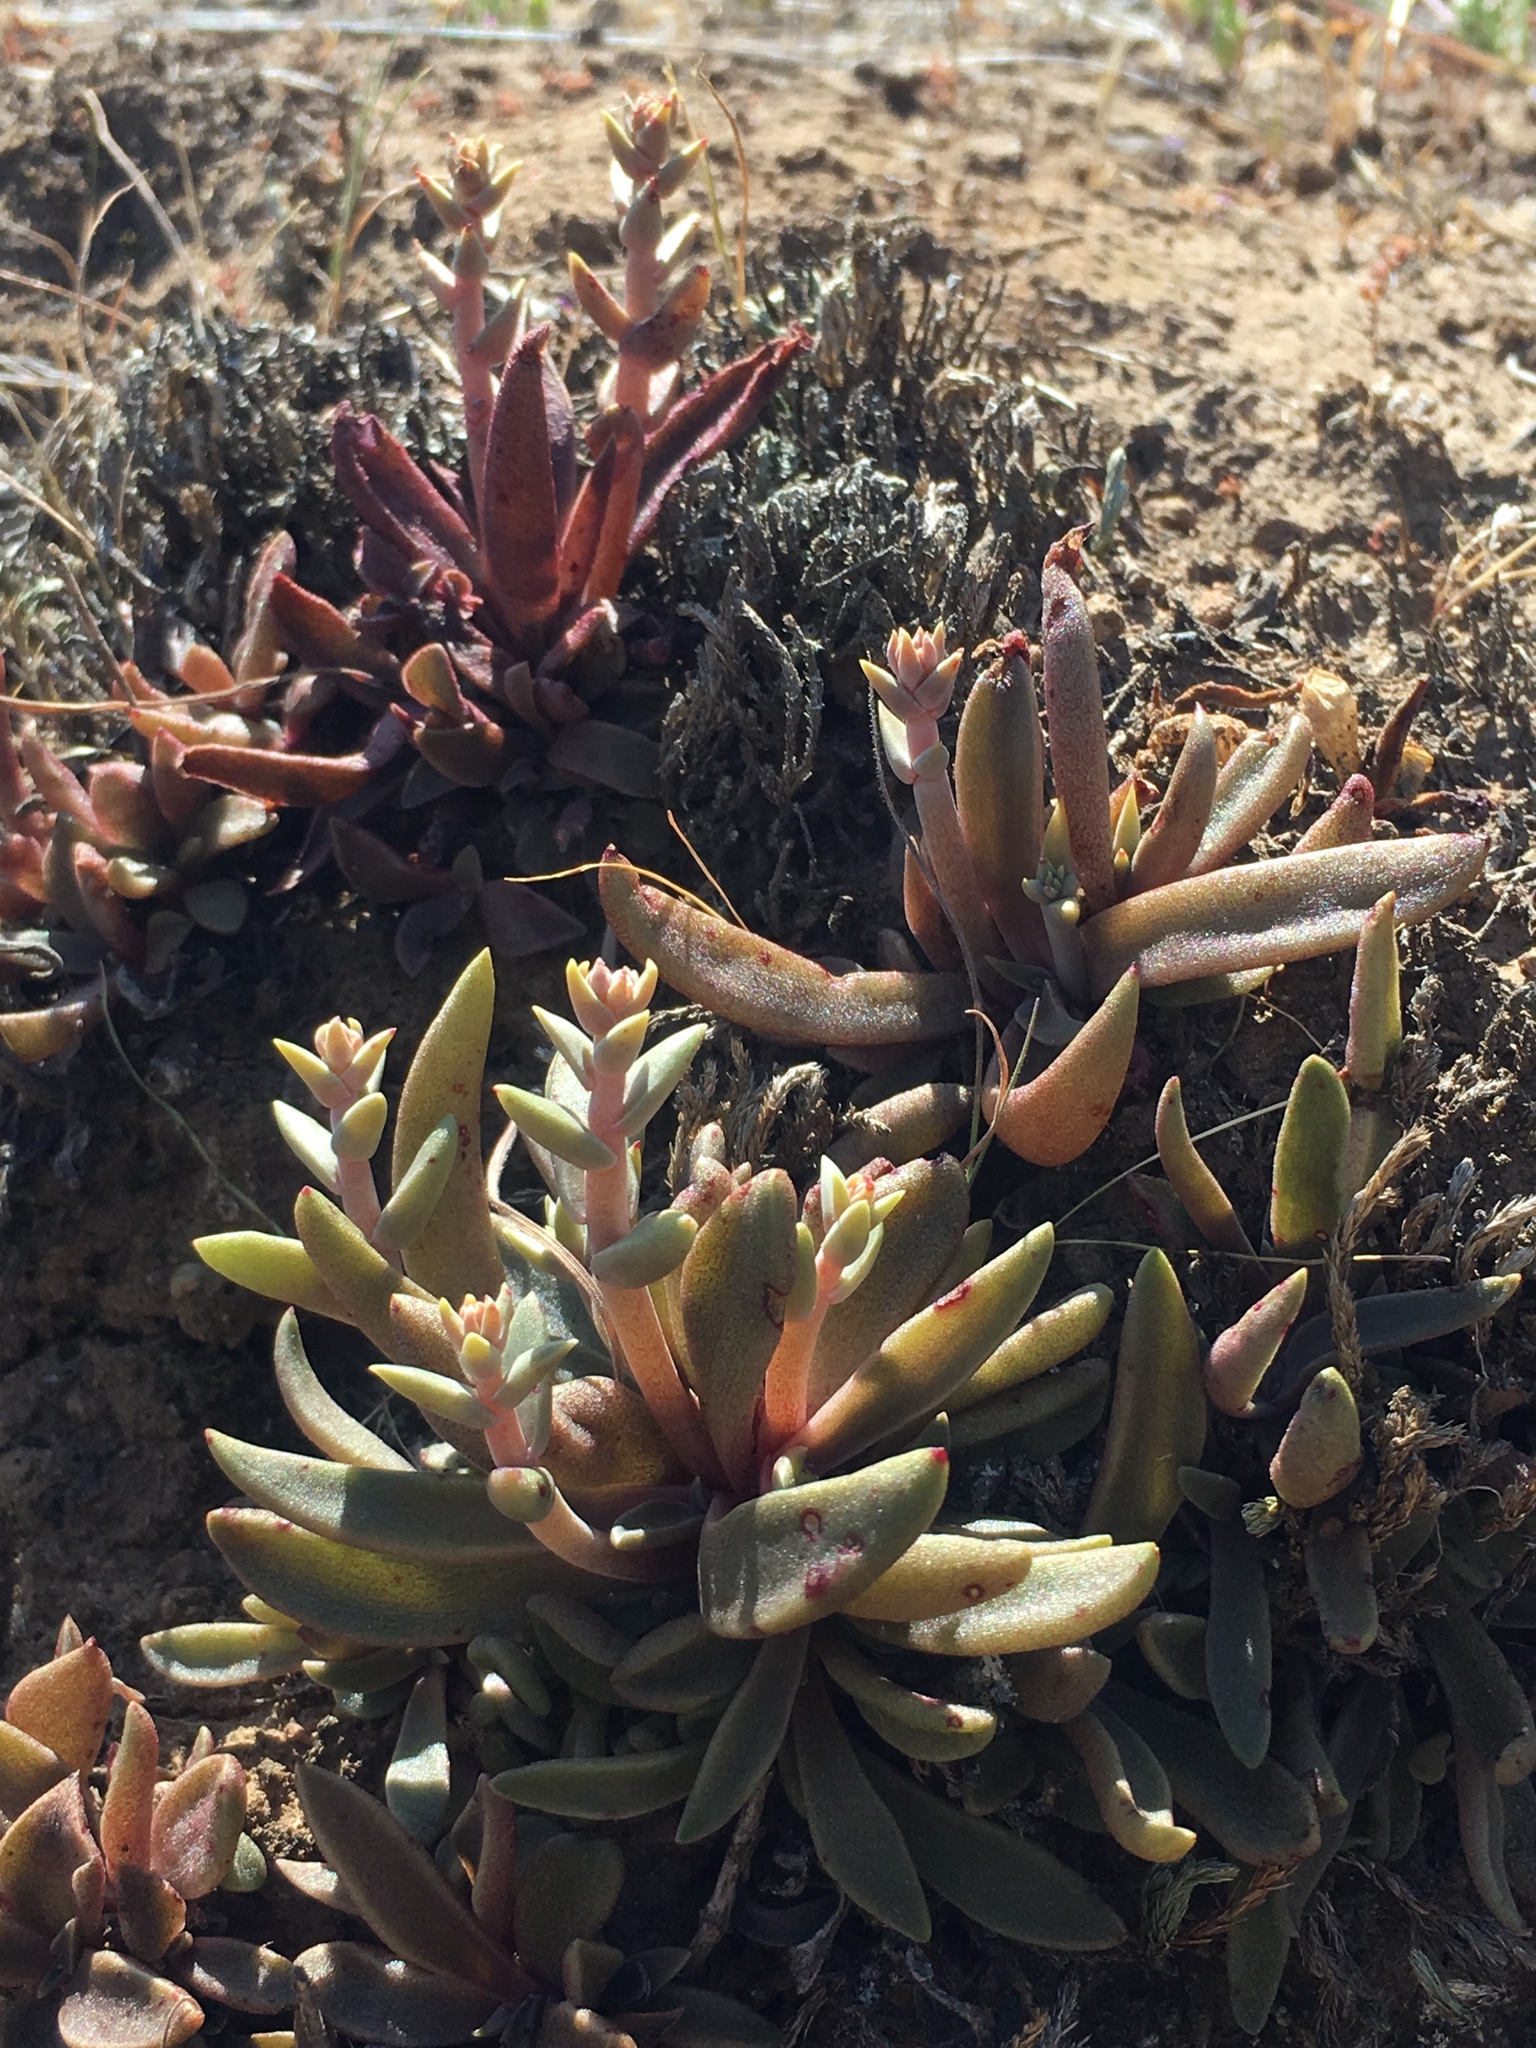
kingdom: Plantae
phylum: Tracheophyta
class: Magnoliopsida
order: Saxifragales
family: Crassulaceae
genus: Dudleya
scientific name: Dudleya parva
